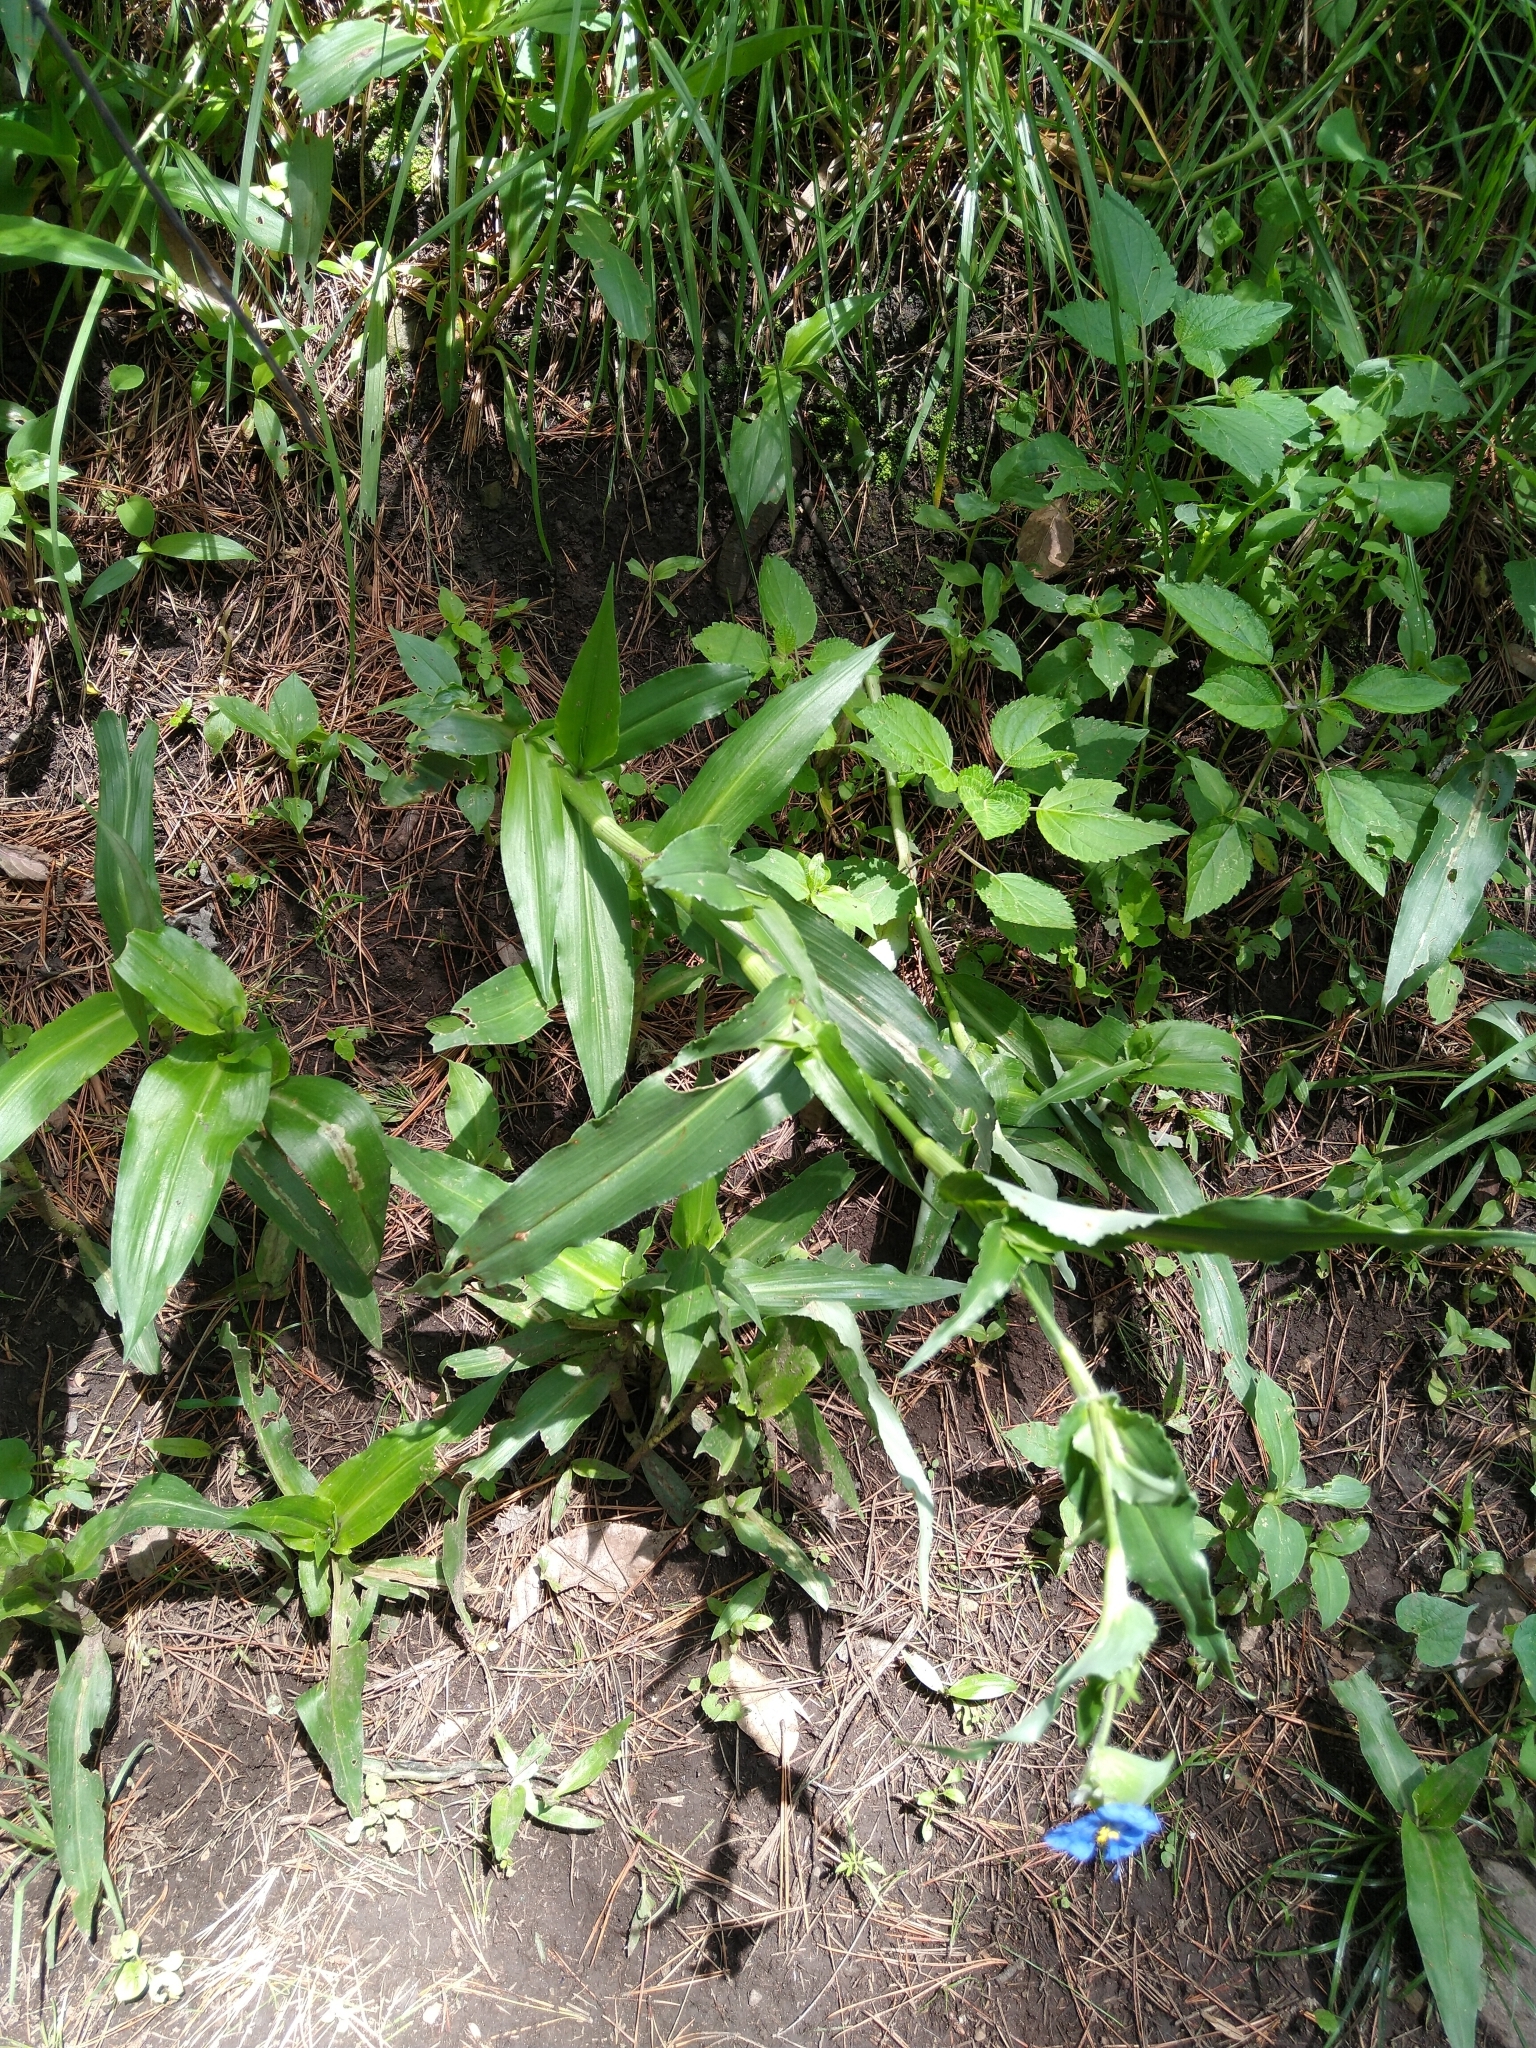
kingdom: Plantae
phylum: Tracheophyta
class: Liliopsida
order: Commelinales
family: Commelinaceae
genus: Commelina
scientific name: Commelina tuberosa
